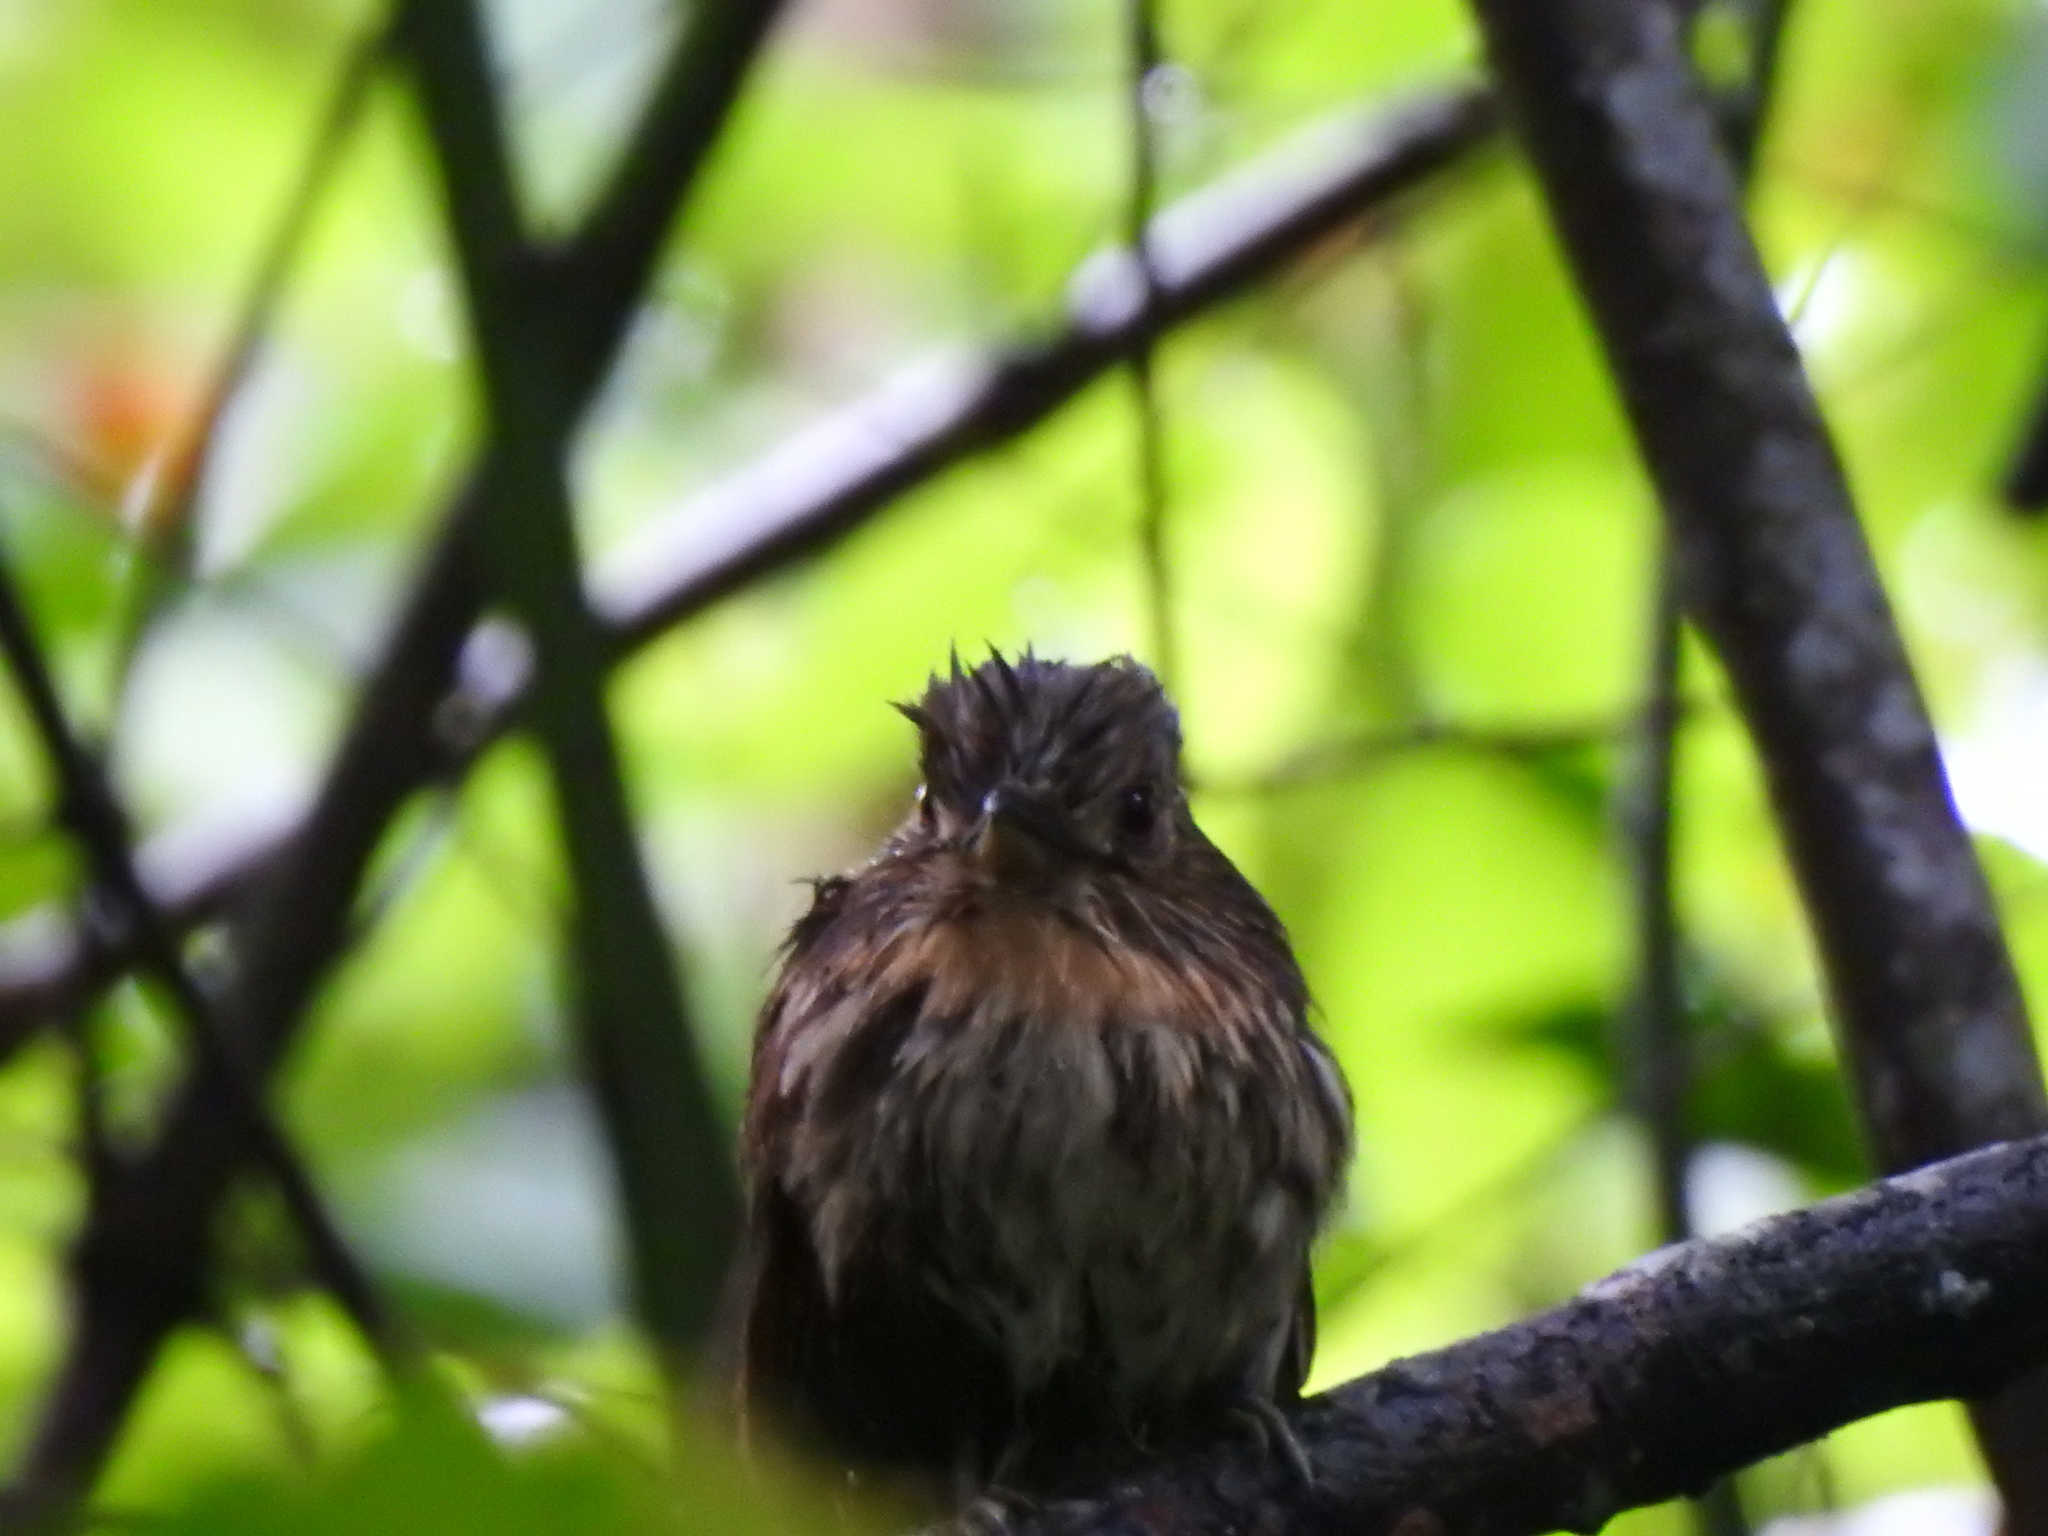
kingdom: Animalia
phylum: Chordata
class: Aves
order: Piciformes
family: Bucconidae
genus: Malacoptila
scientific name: Malacoptila panamensis
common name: White-whiskered puffbird
